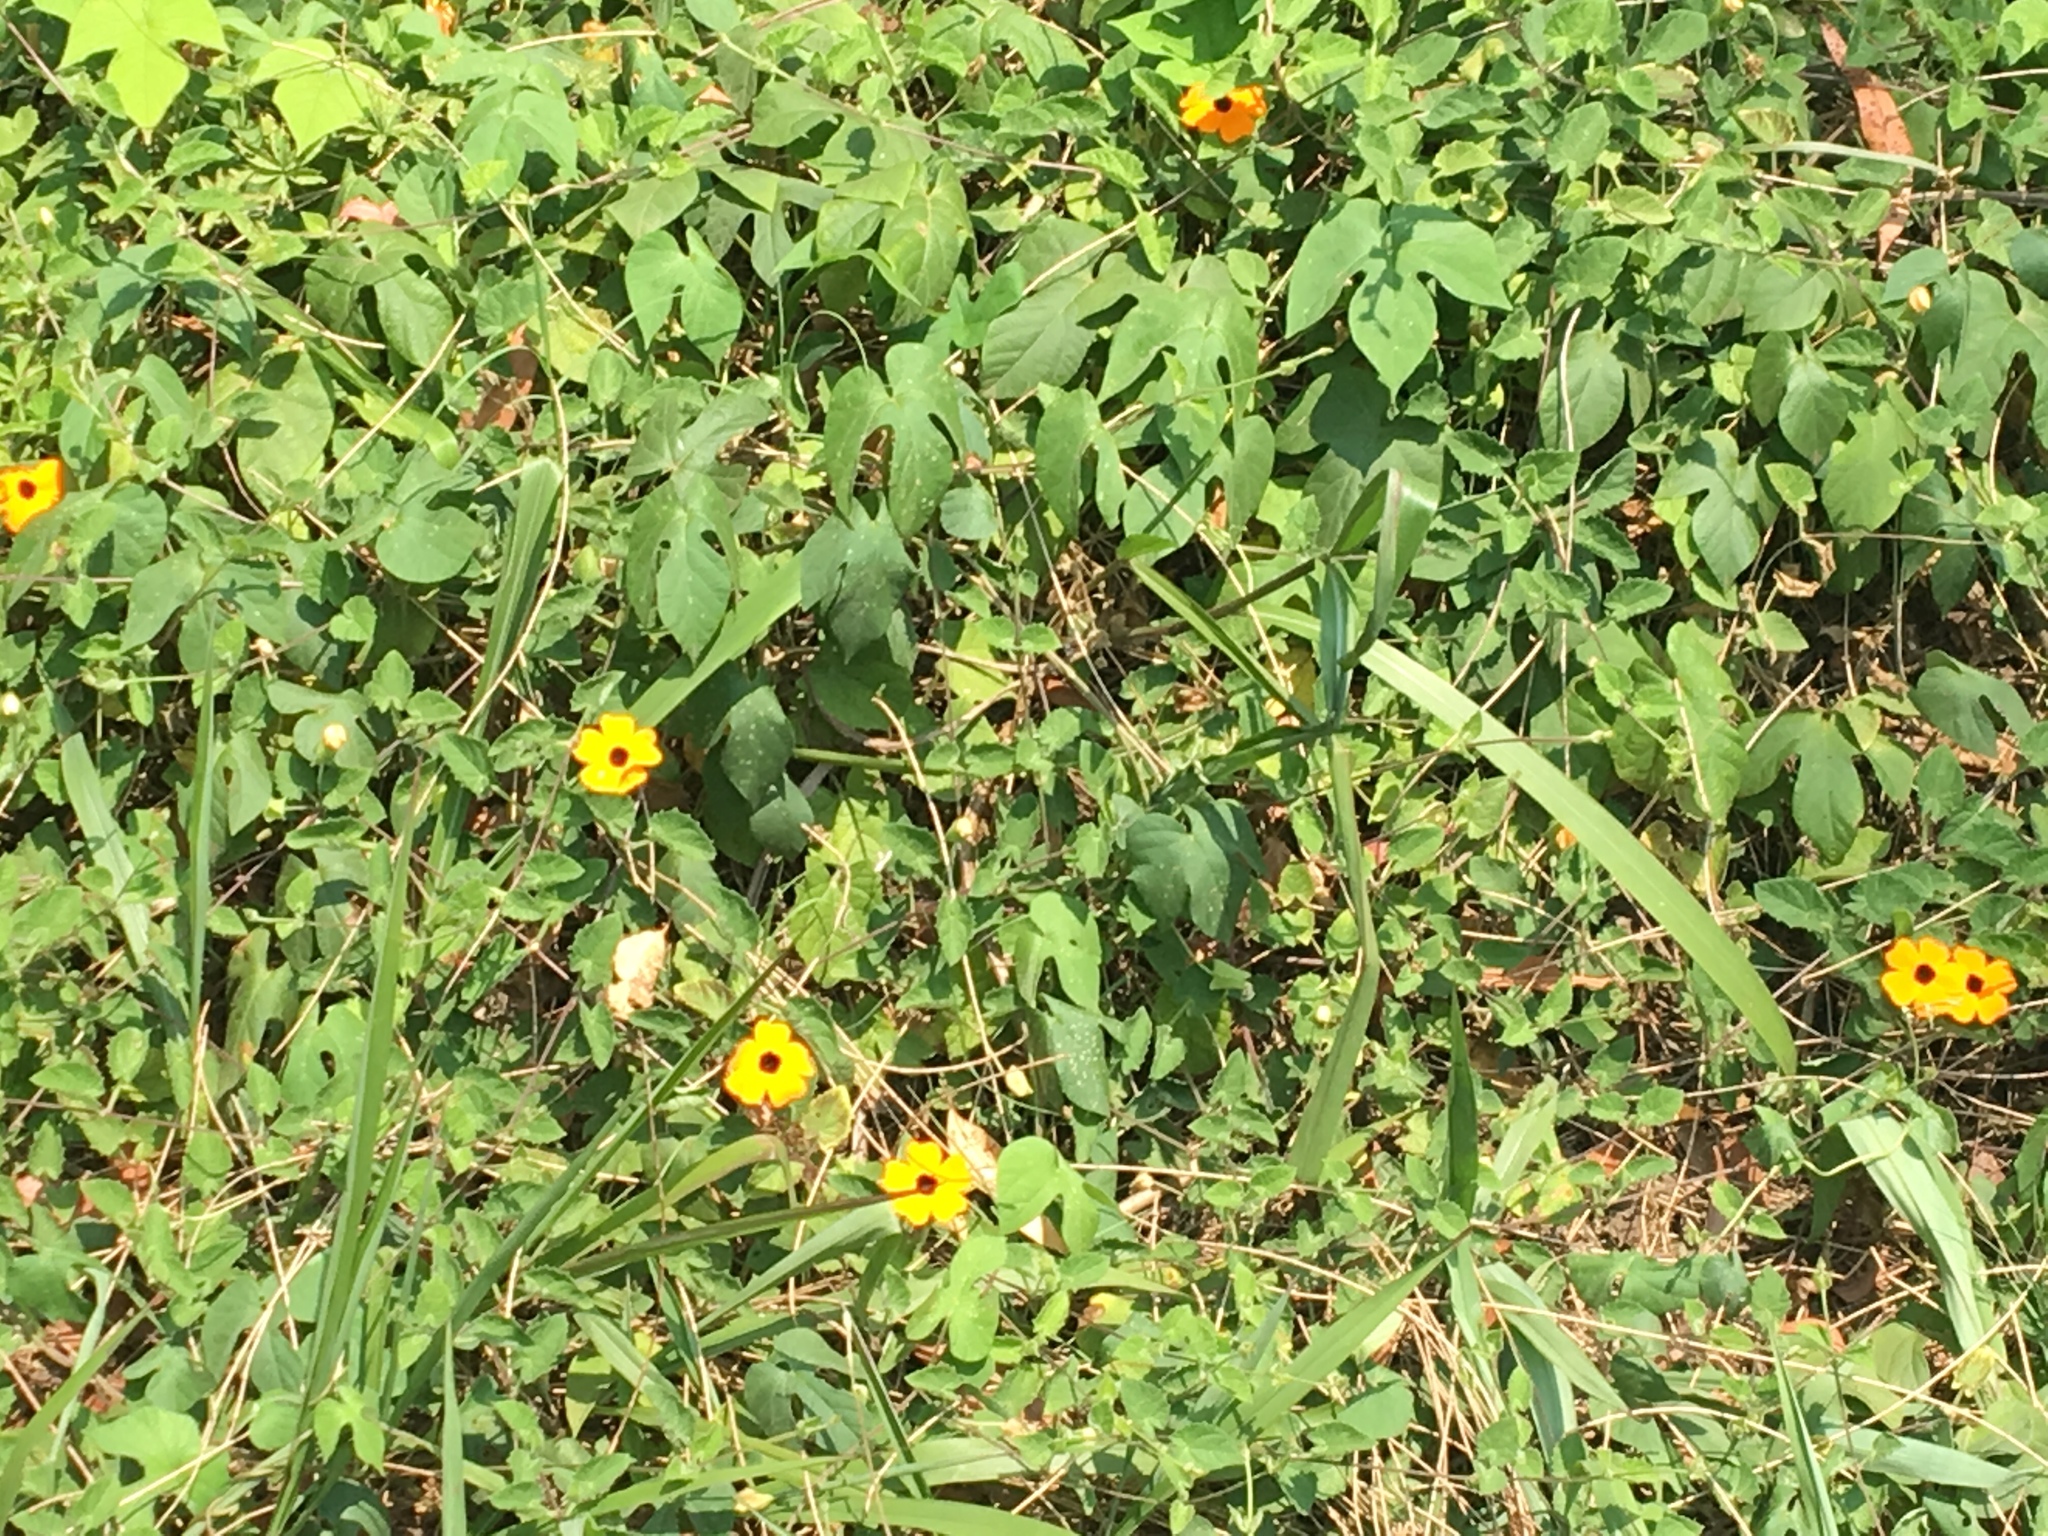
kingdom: Plantae
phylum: Tracheophyta
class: Magnoliopsida
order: Lamiales
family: Acanthaceae
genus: Thunbergia
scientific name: Thunbergia alata
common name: Blackeyed susan vine
